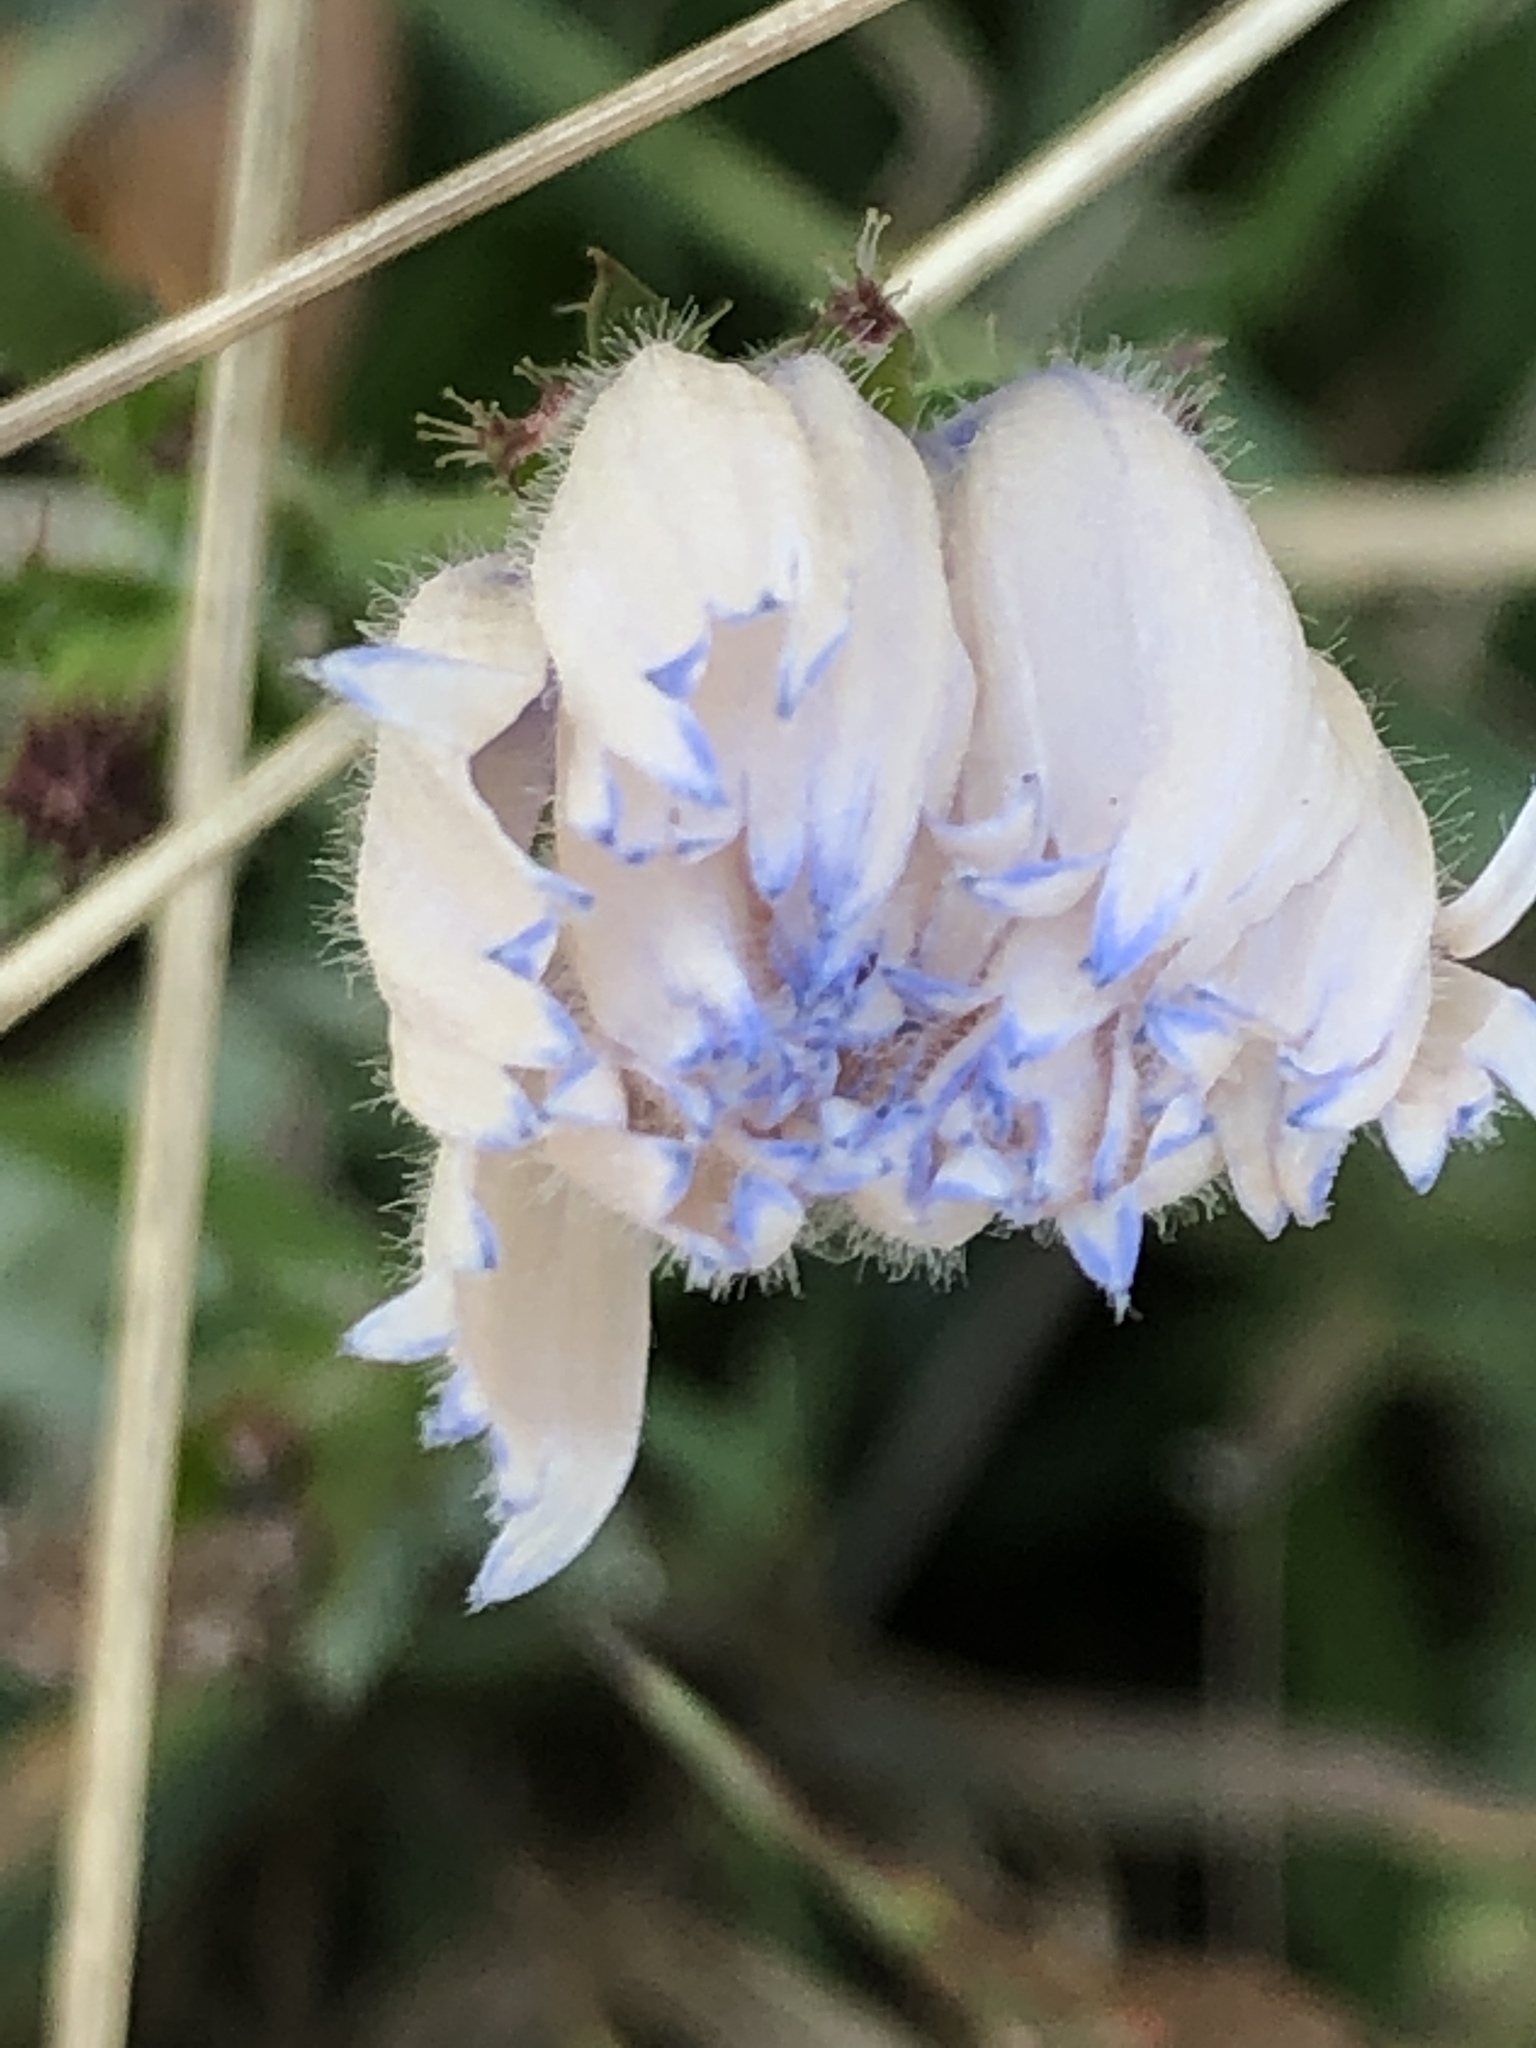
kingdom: Plantae
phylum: Tracheophyta
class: Magnoliopsida
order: Asterales
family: Asteraceae
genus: Cichorium
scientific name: Cichorium intybus
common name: Chicory
